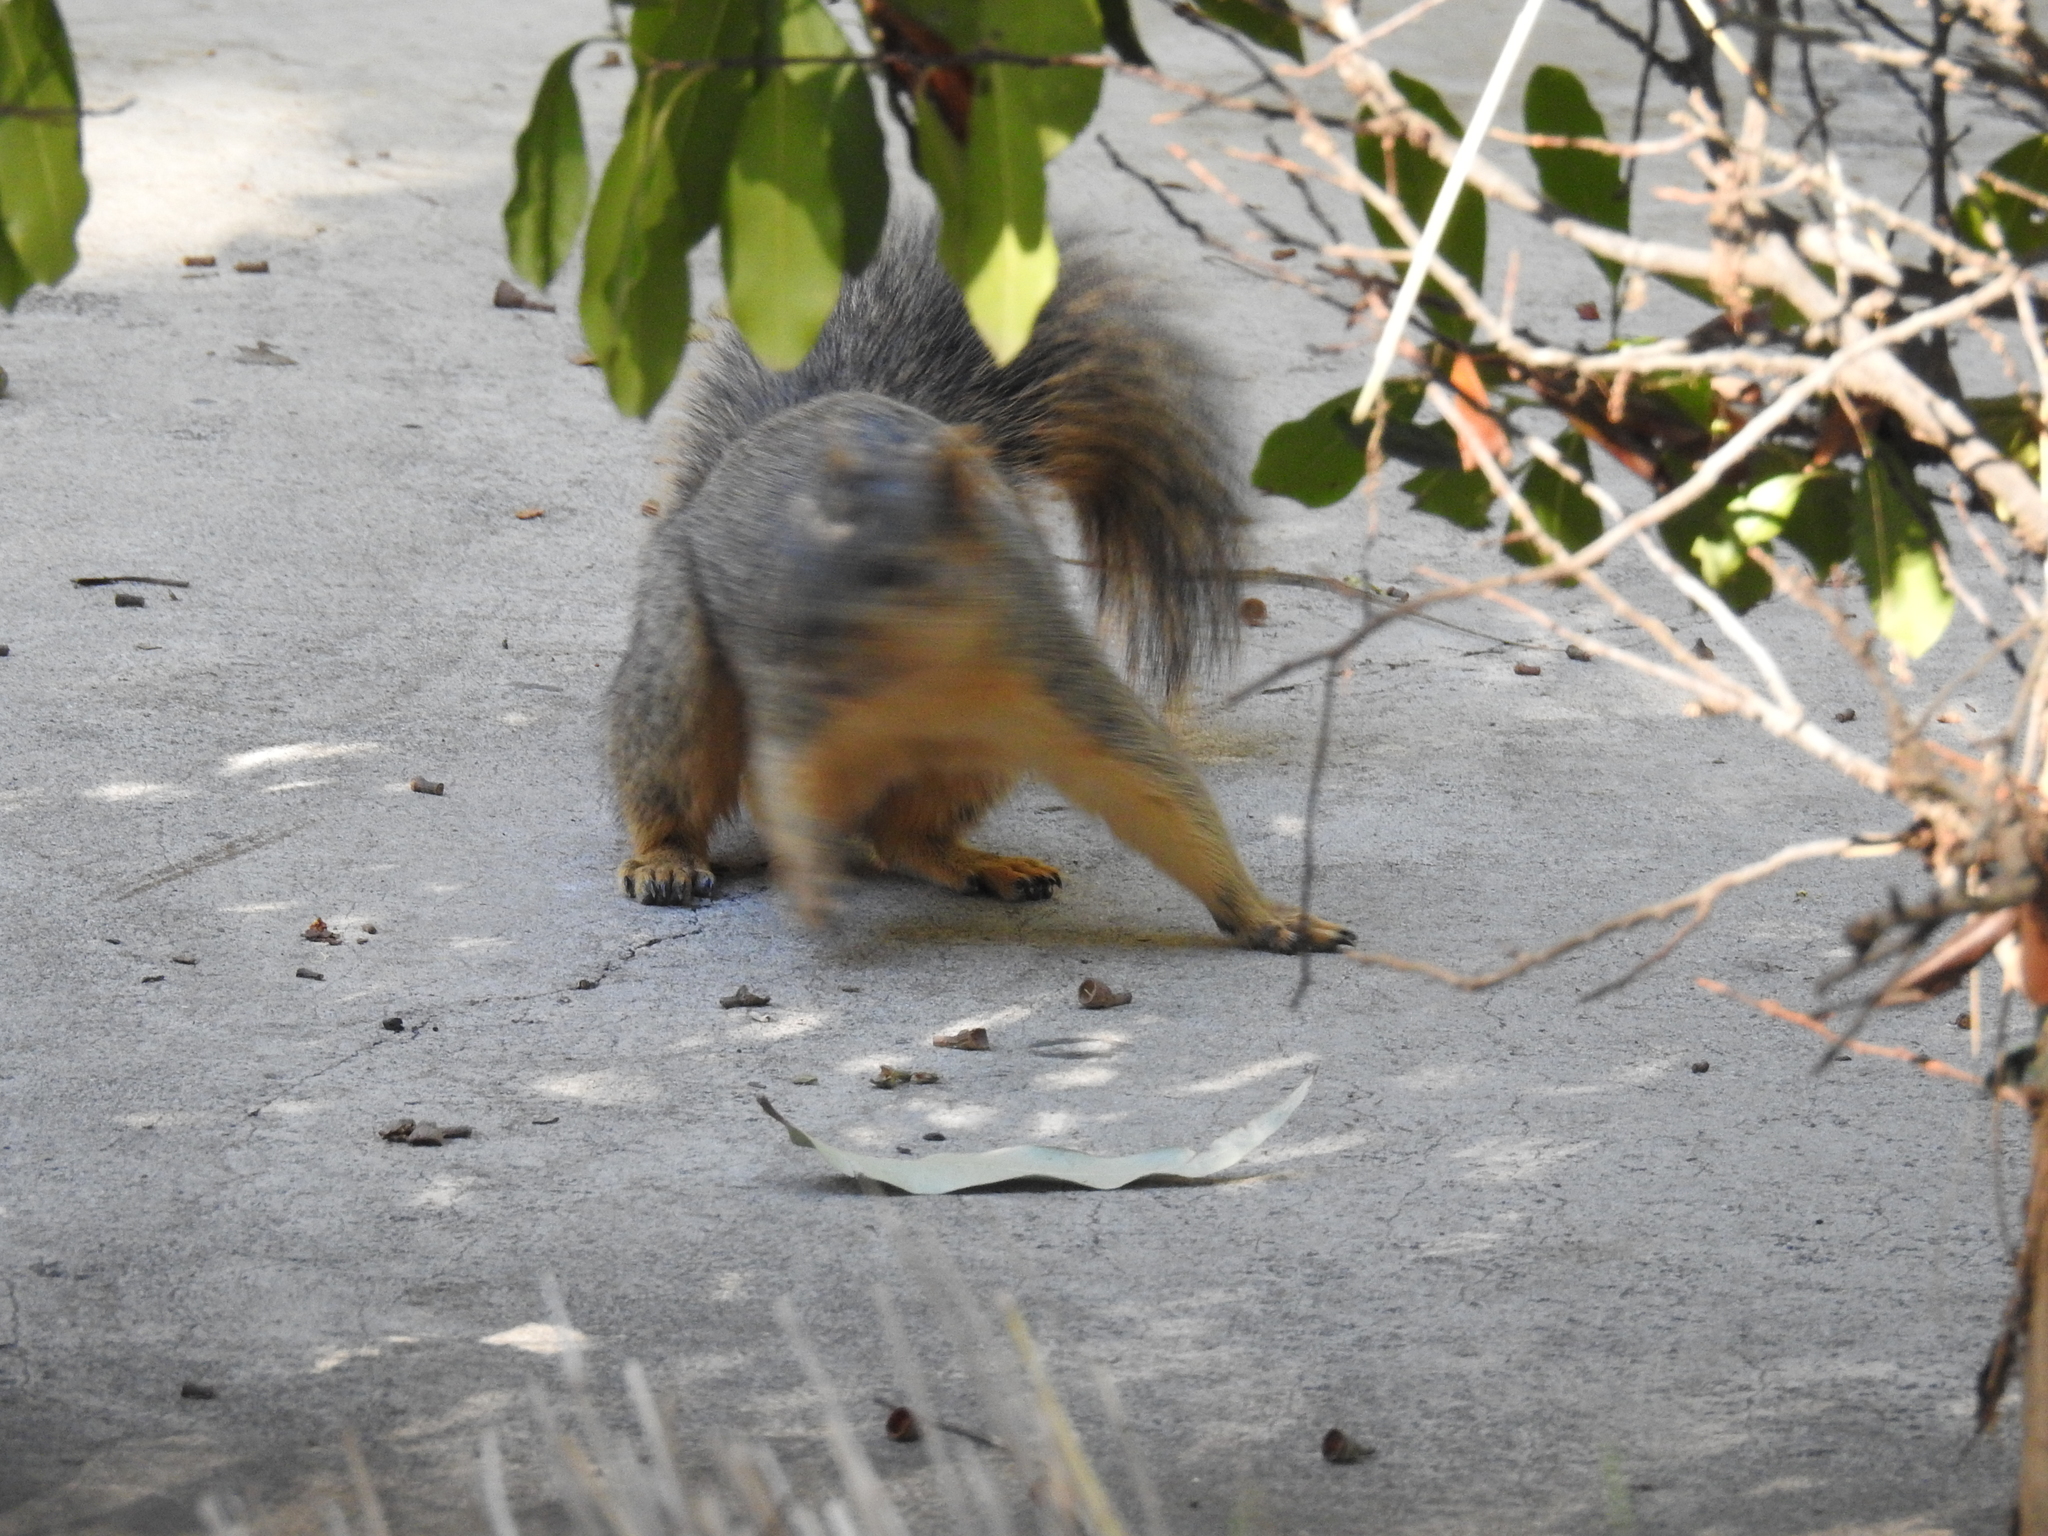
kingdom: Animalia
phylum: Chordata
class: Mammalia
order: Rodentia
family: Sciuridae
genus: Sciurus
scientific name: Sciurus niger
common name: Fox squirrel
